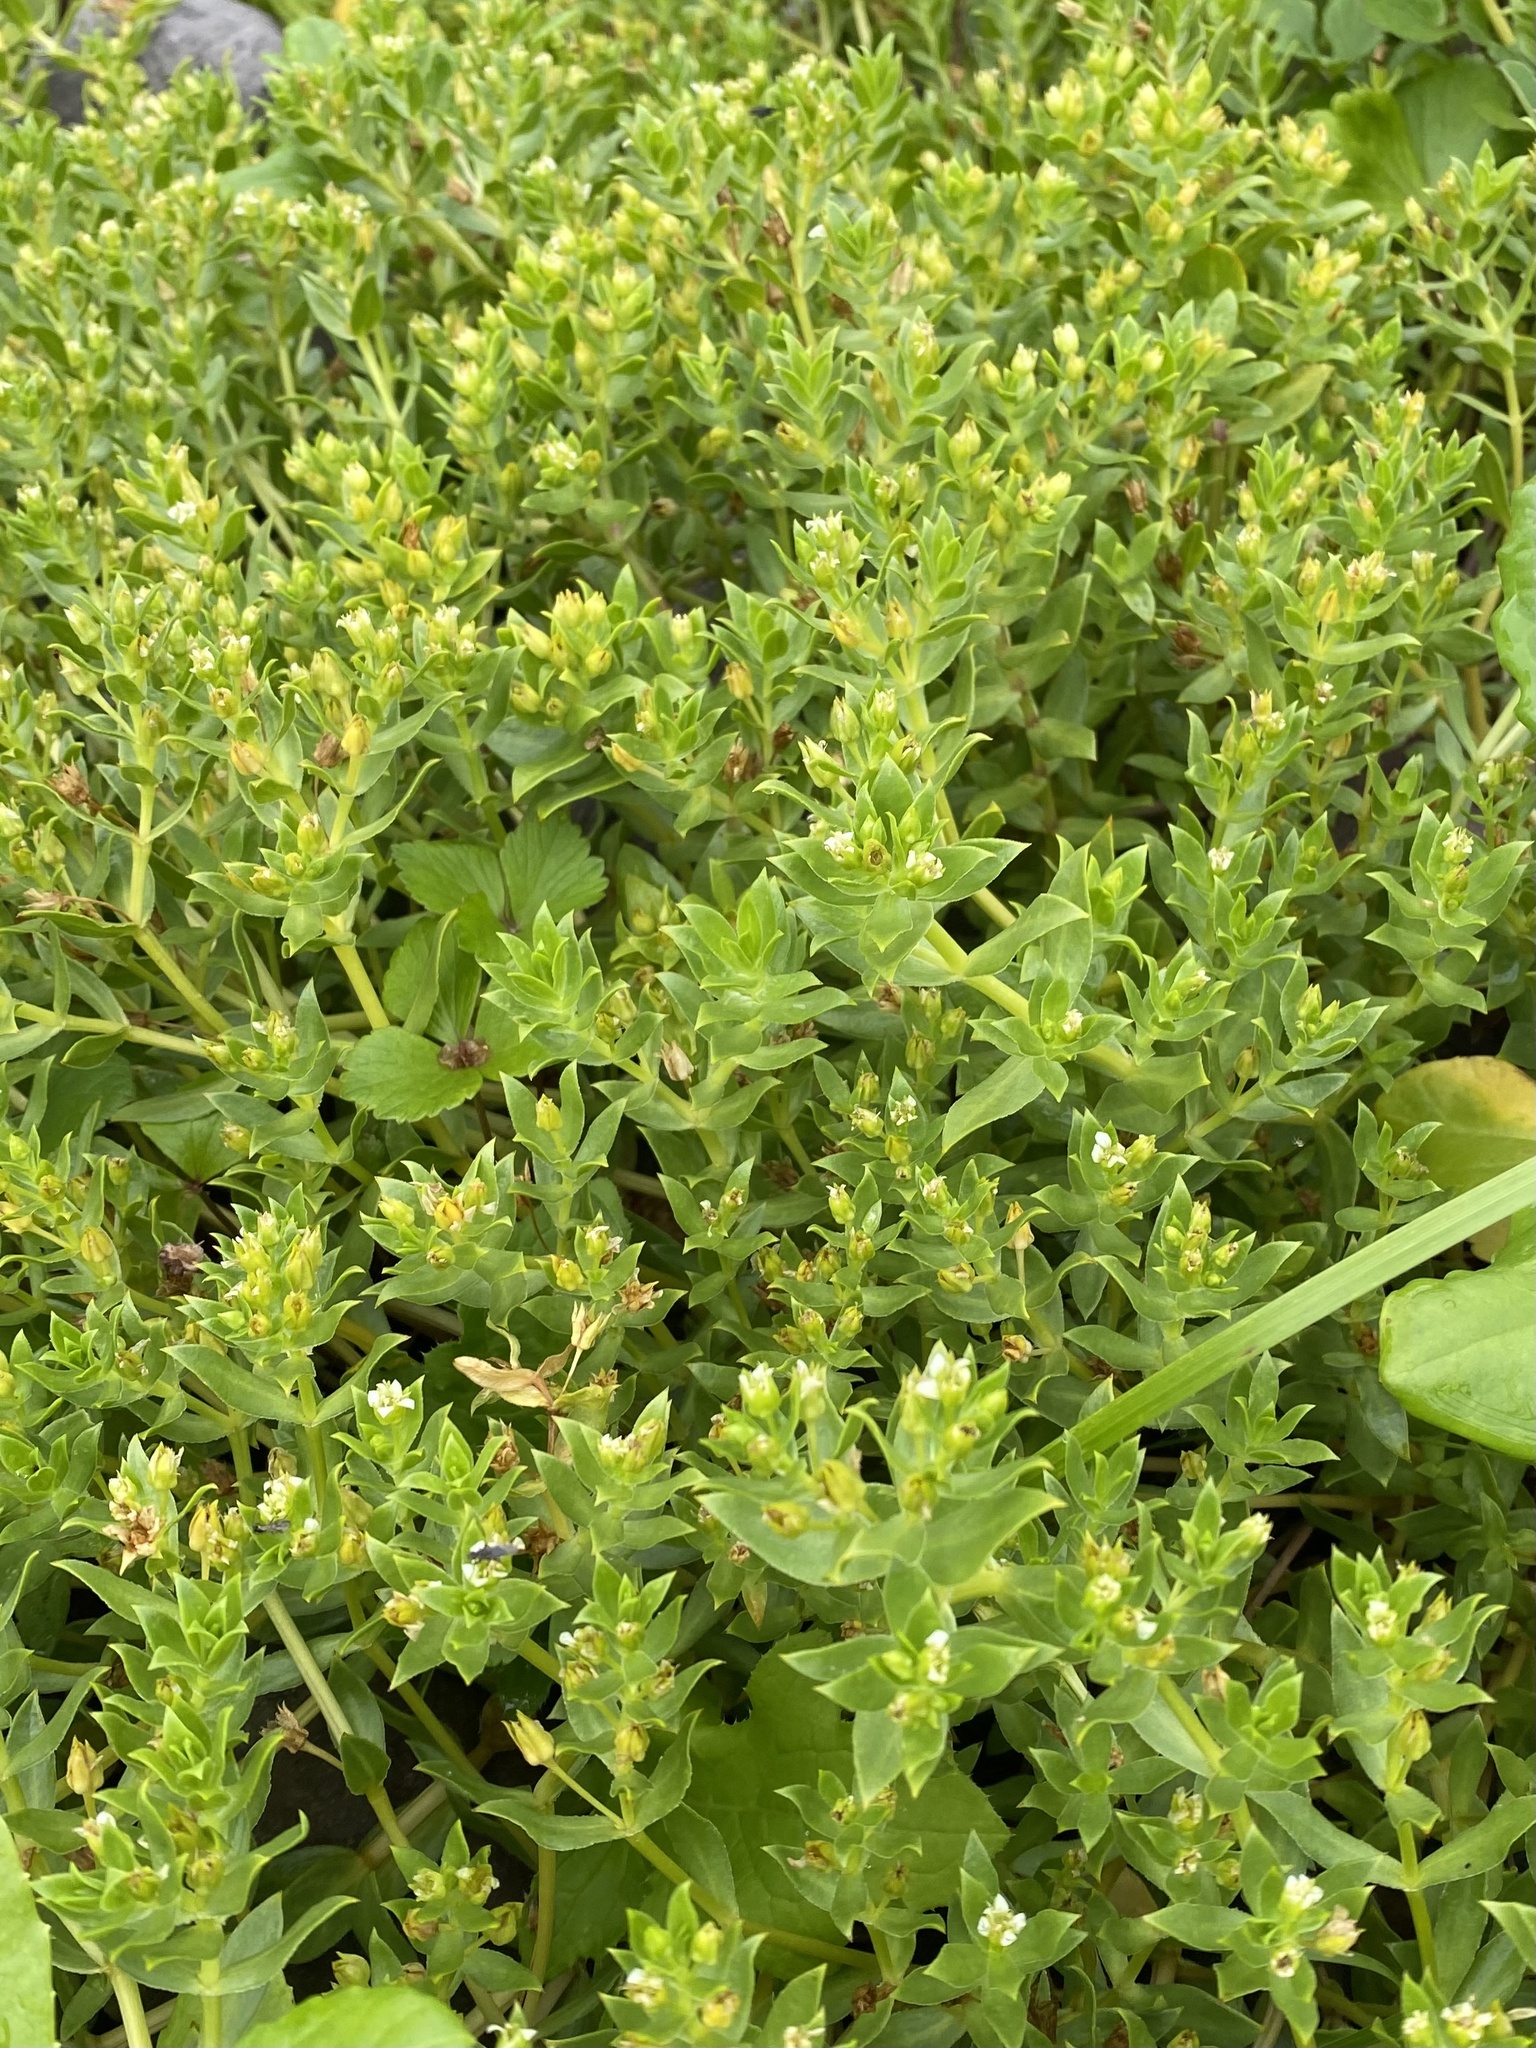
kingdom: Plantae
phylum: Tracheophyta
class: Magnoliopsida
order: Caryophyllales
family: Caryophyllaceae
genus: Honckenya
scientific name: Honckenya peploides
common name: Sea sandwort
